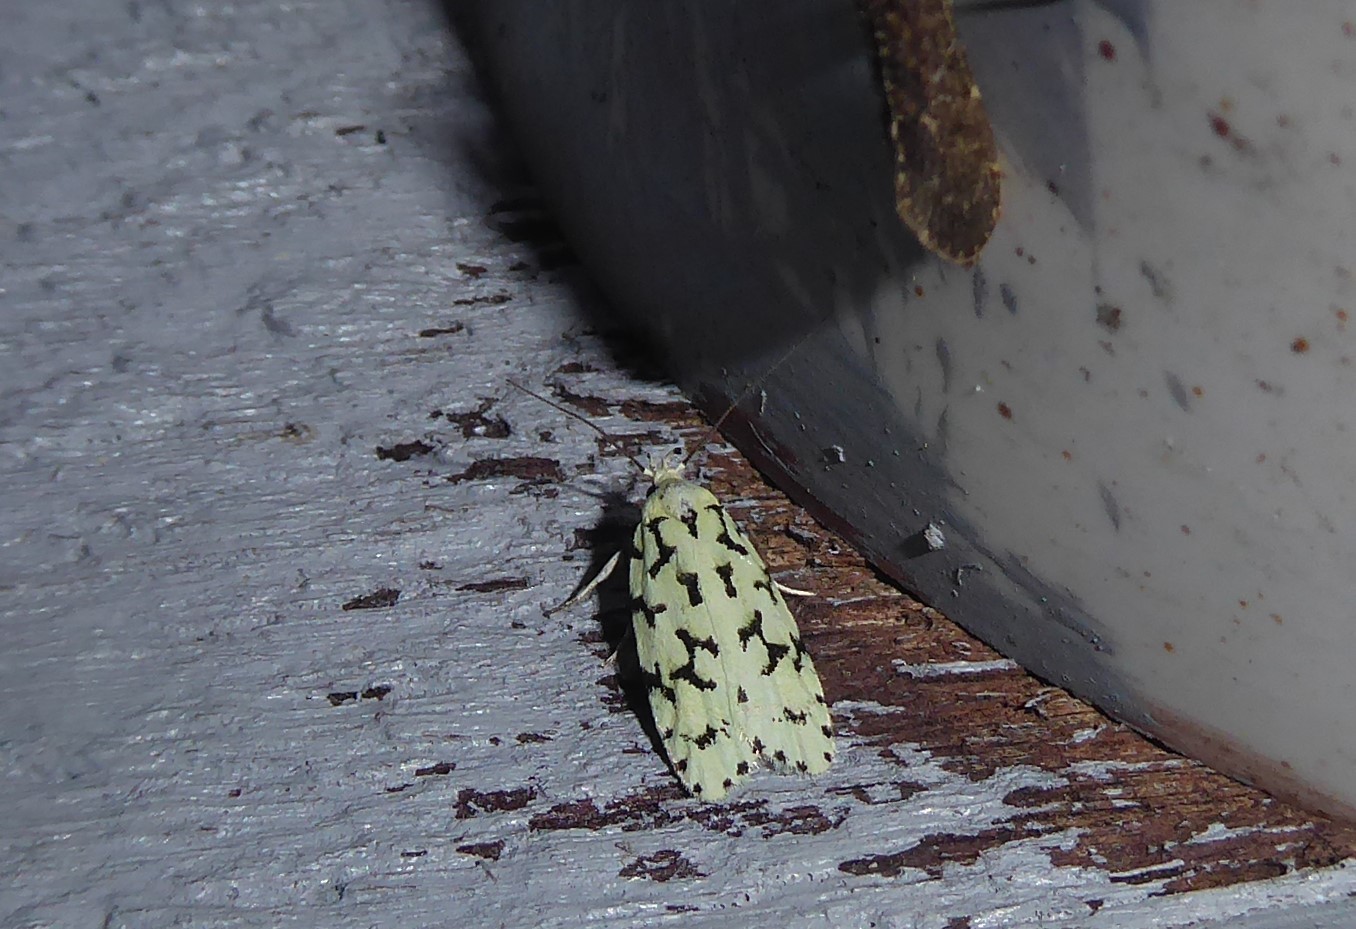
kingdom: Animalia
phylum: Arthropoda
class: Insecta
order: Lepidoptera
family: Oecophoridae
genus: Izatha
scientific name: Izatha huttoni
